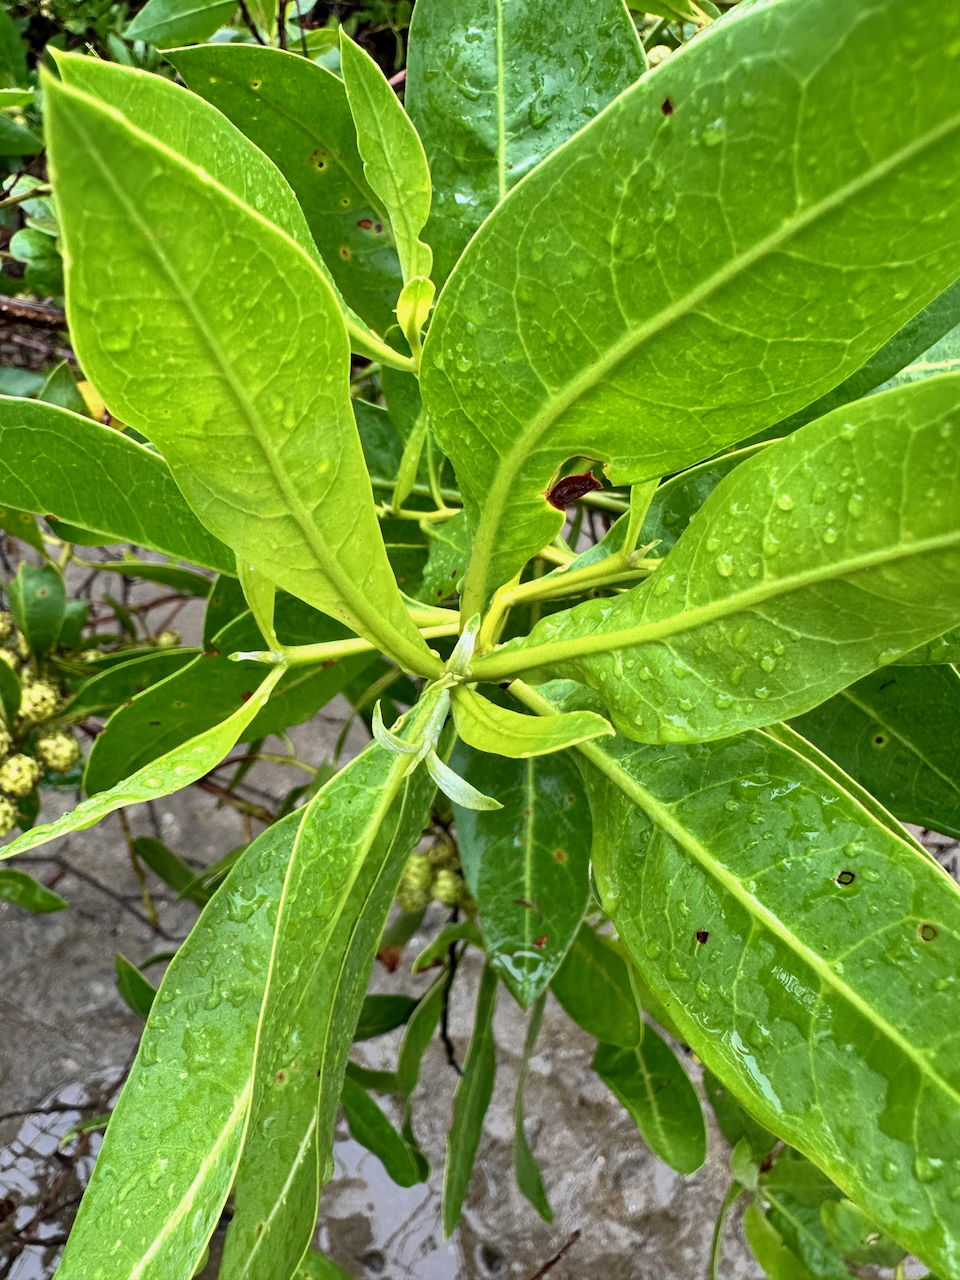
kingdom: Plantae
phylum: Tracheophyta
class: Magnoliopsida
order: Myrtales
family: Combretaceae
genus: Conocarpus
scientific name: Conocarpus erectus
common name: Button mangrove
